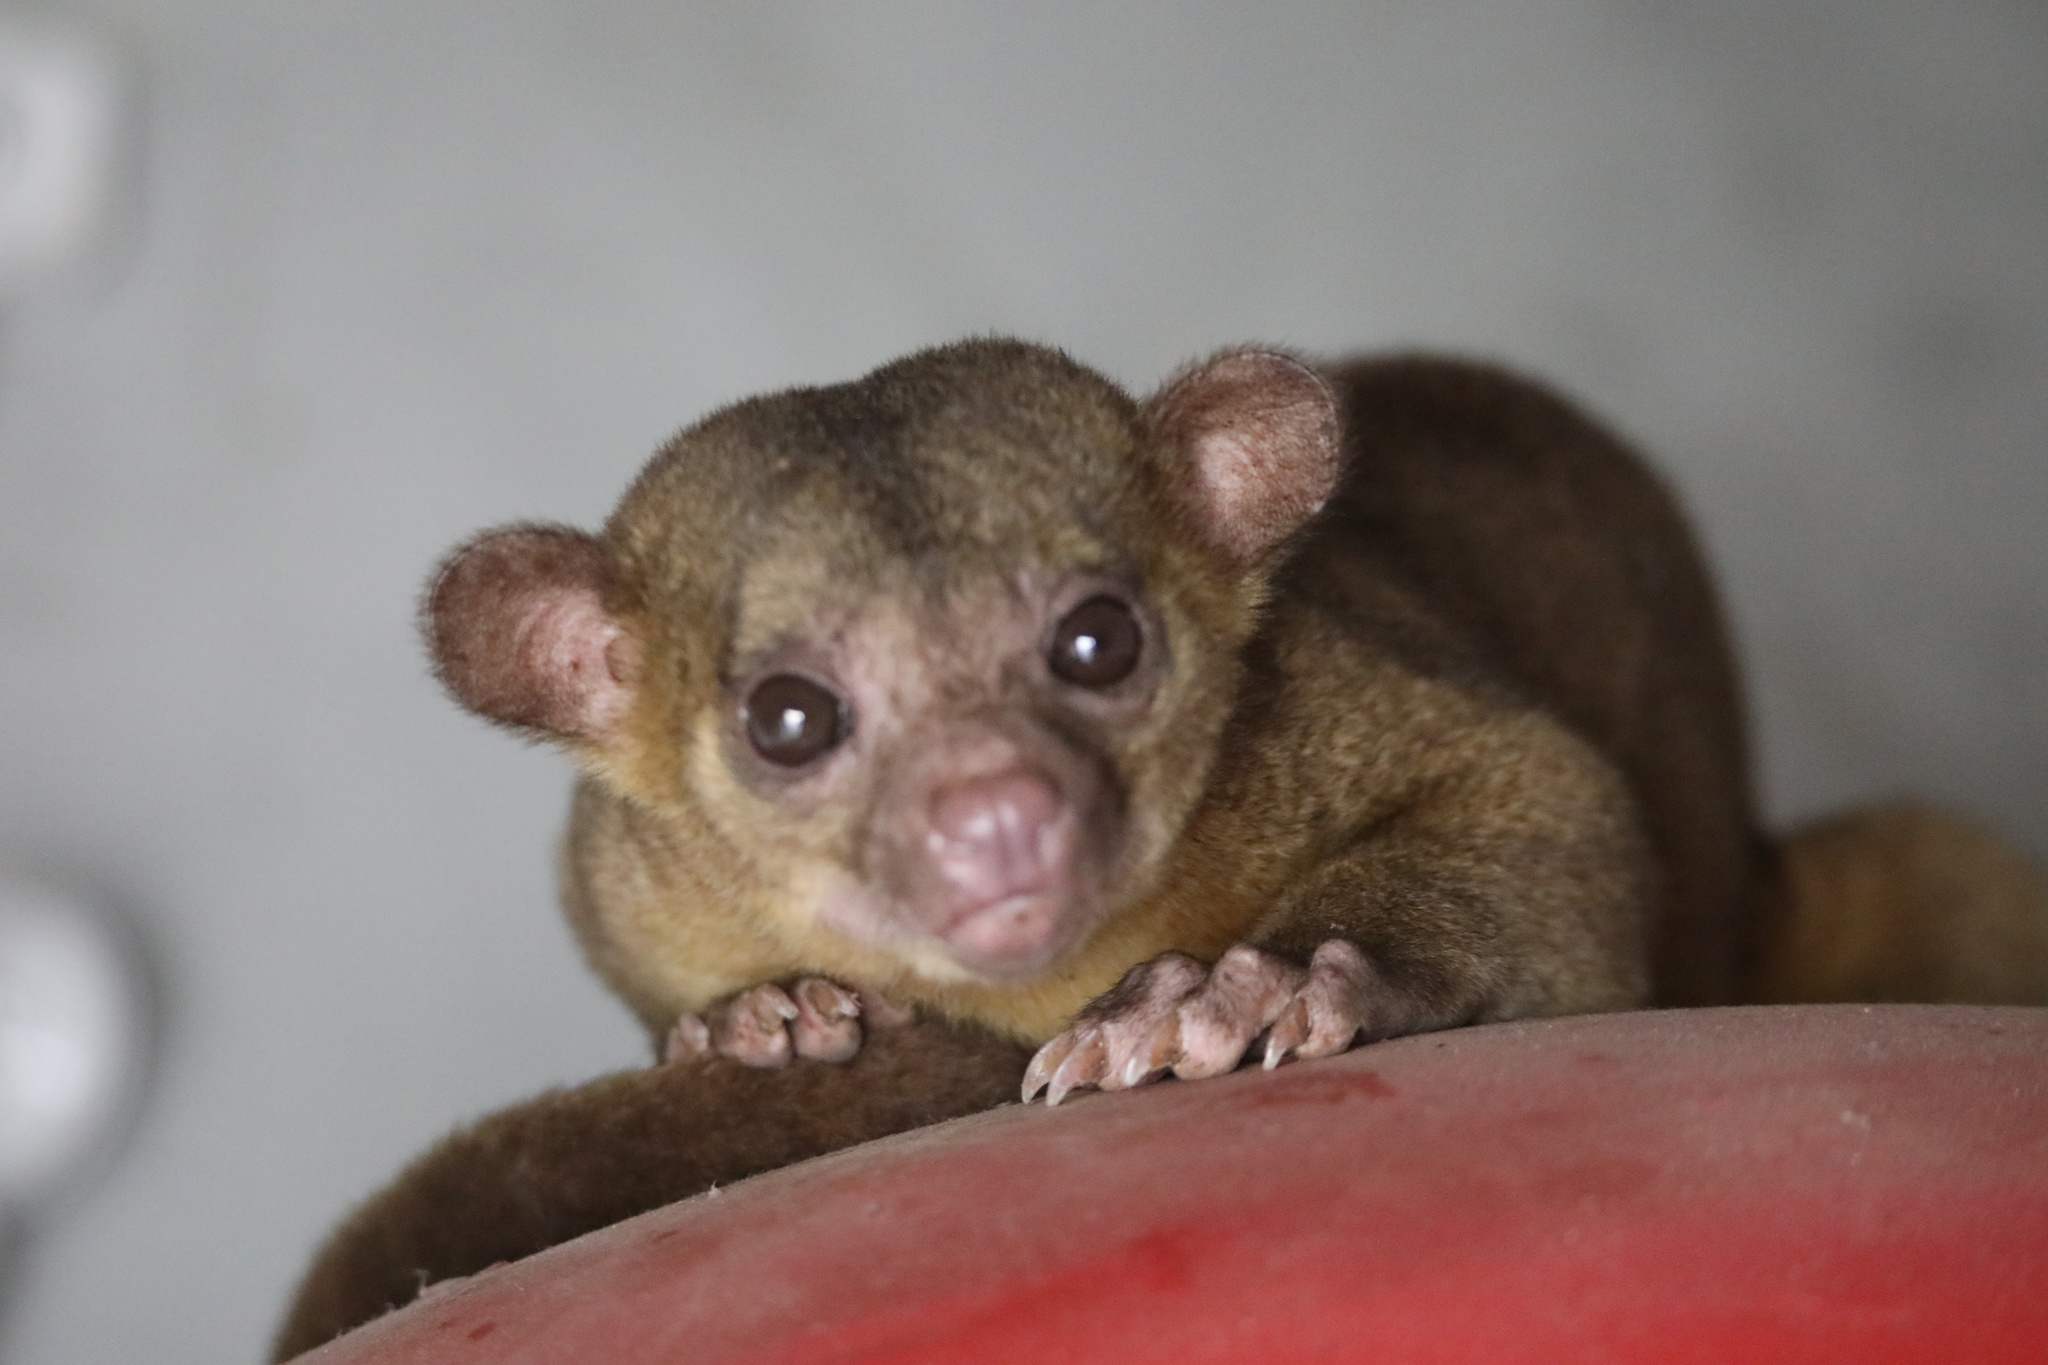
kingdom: Animalia
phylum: Chordata
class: Mammalia
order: Carnivora
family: Procyonidae
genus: Potos
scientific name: Potos flavus
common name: Kinkajou
